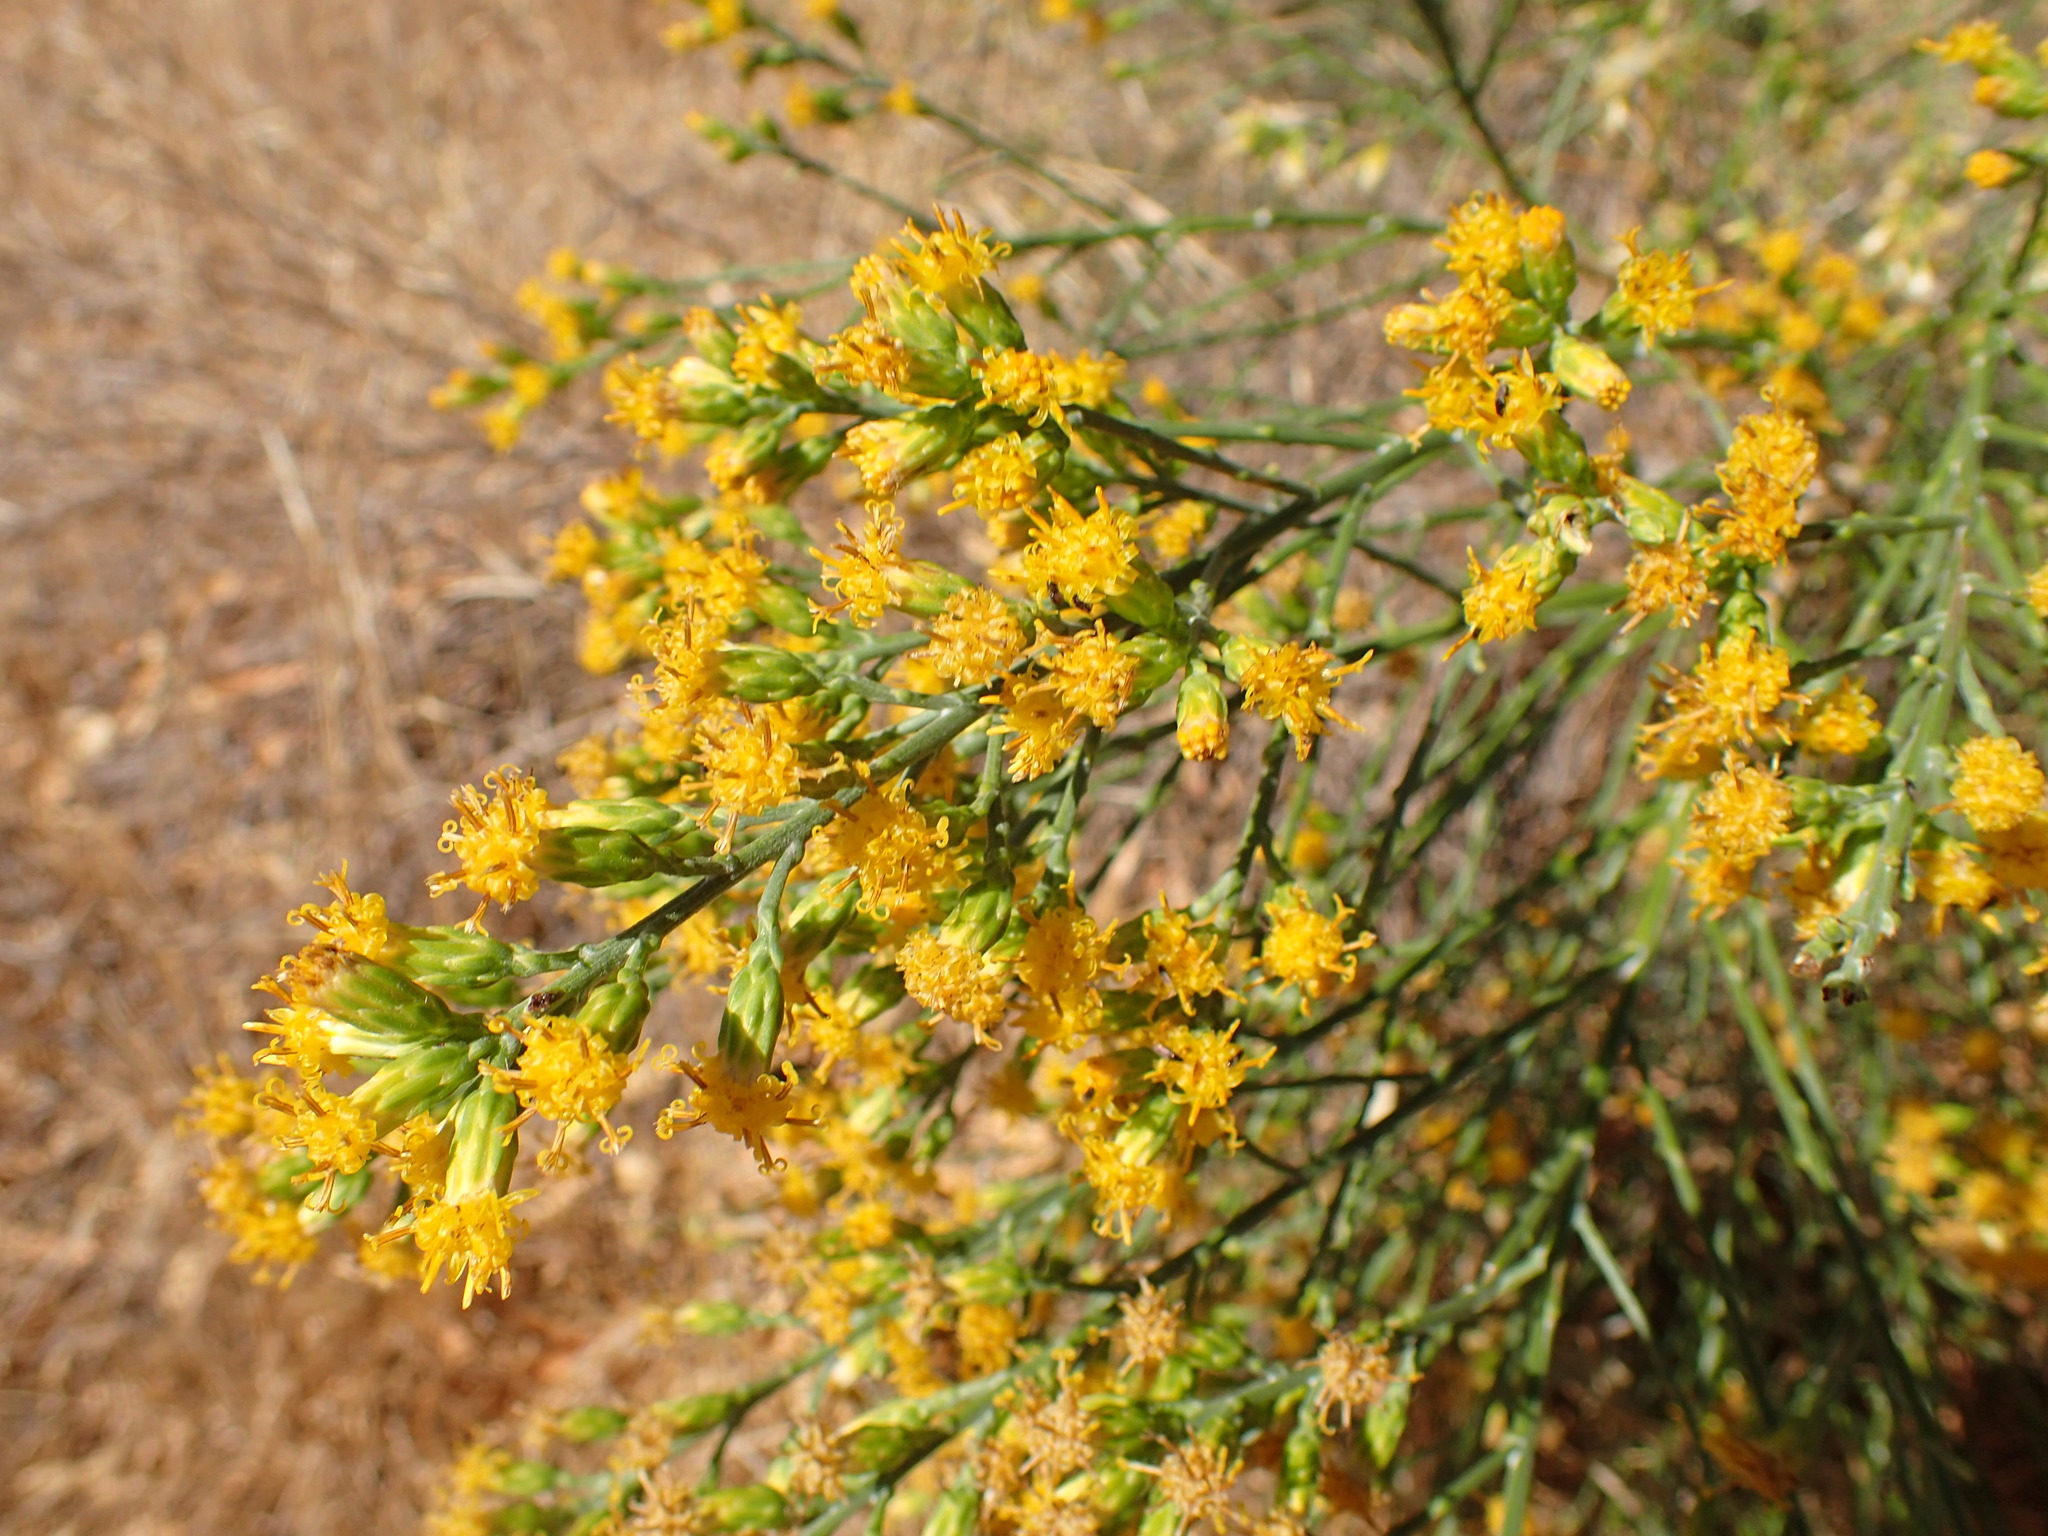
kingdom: Plantae
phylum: Tracheophyta
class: Magnoliopsida
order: Asterales
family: Asteraceae
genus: Lepidospartum
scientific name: Lepidospartum squamatum
